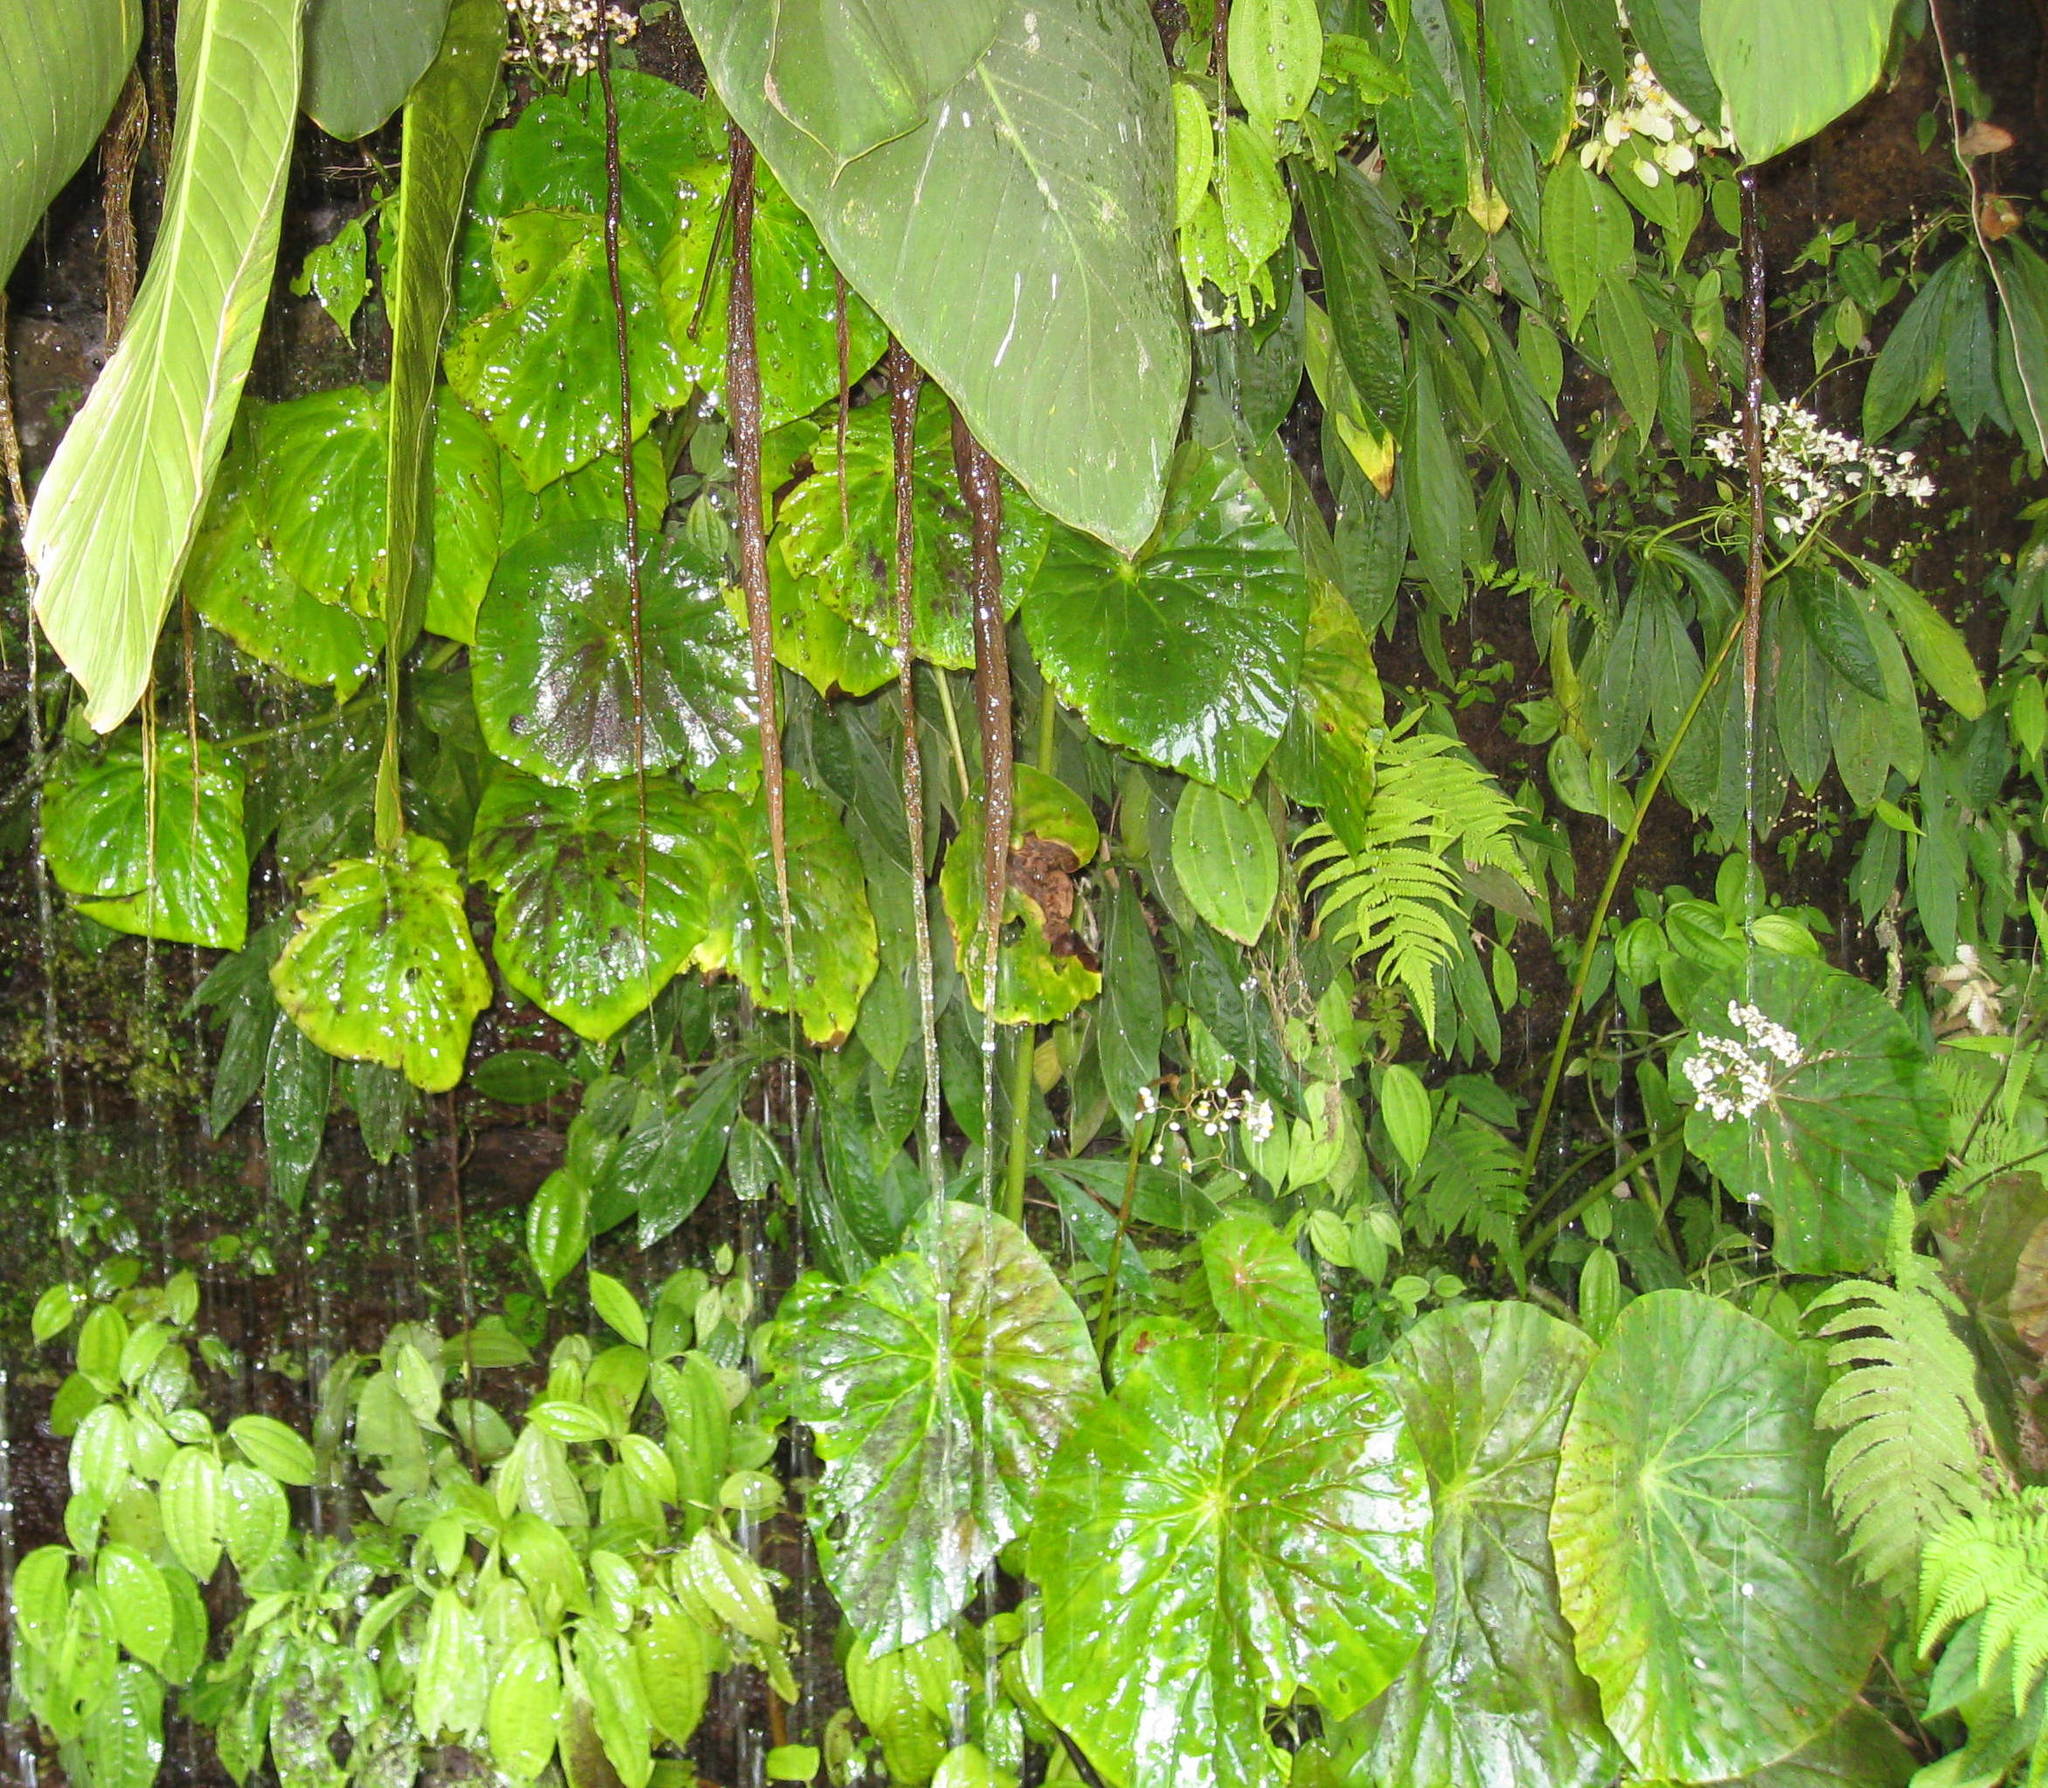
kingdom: Plantae
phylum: Tracheophyta
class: Magnoliopsida
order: Cucurbitales
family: Begoniaceae
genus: Begonia
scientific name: Begonia nelumbiifolia
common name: Lilypad begonia
